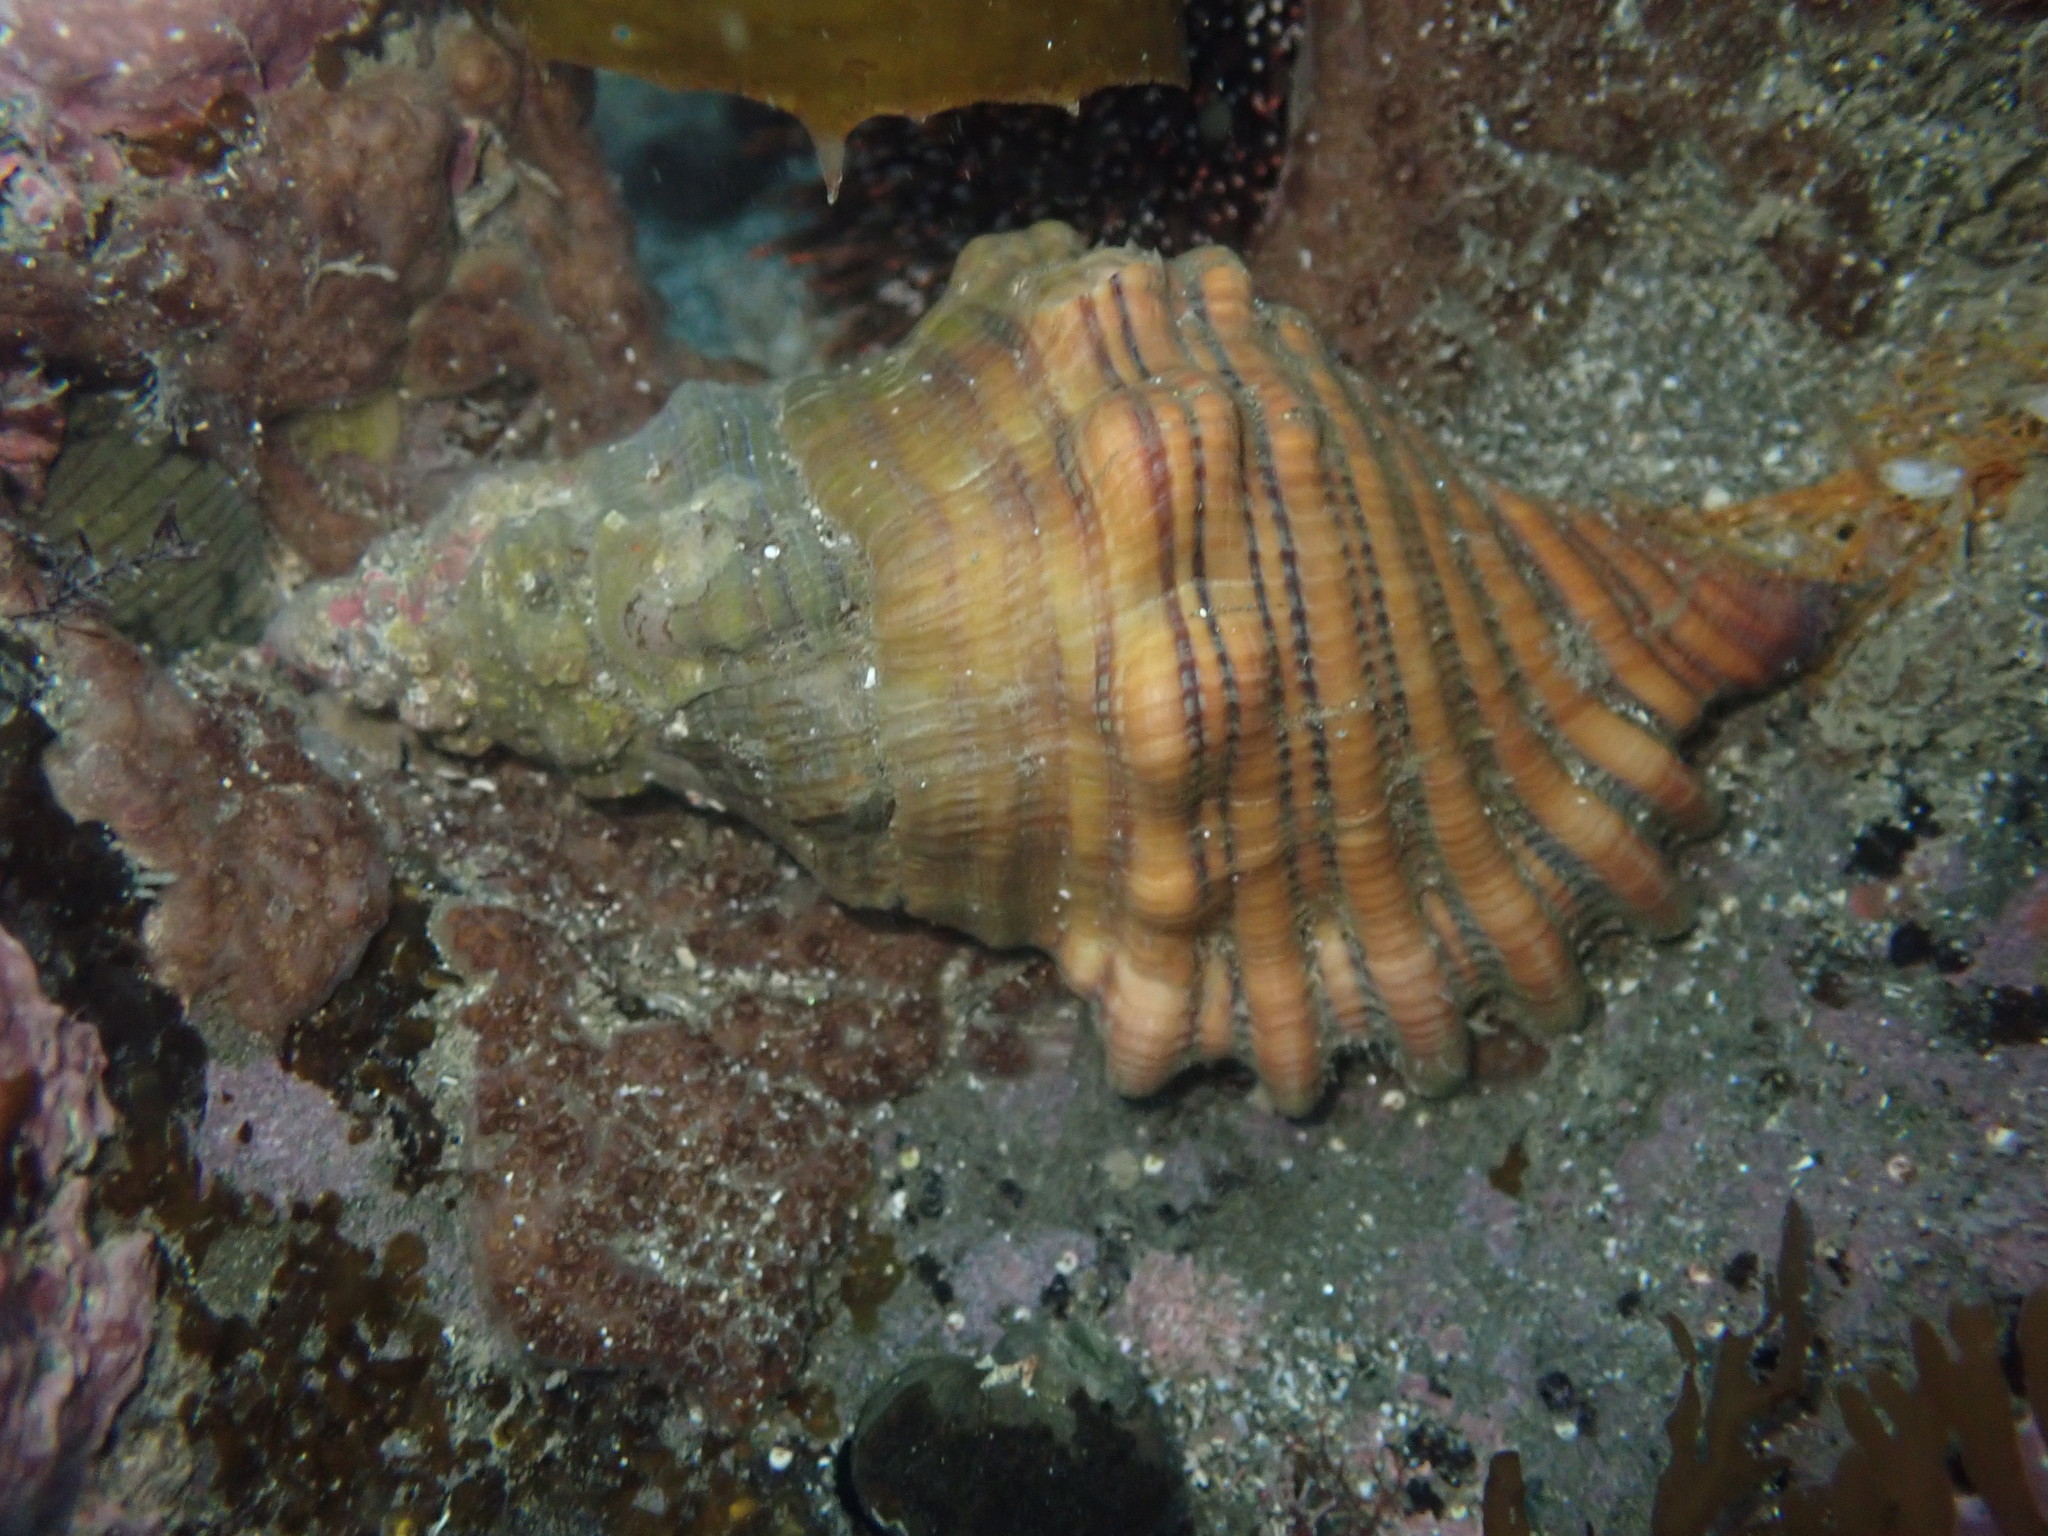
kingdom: Animalia
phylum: Mollusca
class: Gastropoda
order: Littorinimorpha
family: Cymatiidae
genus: Cabestana
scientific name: Cabestana spengleri
